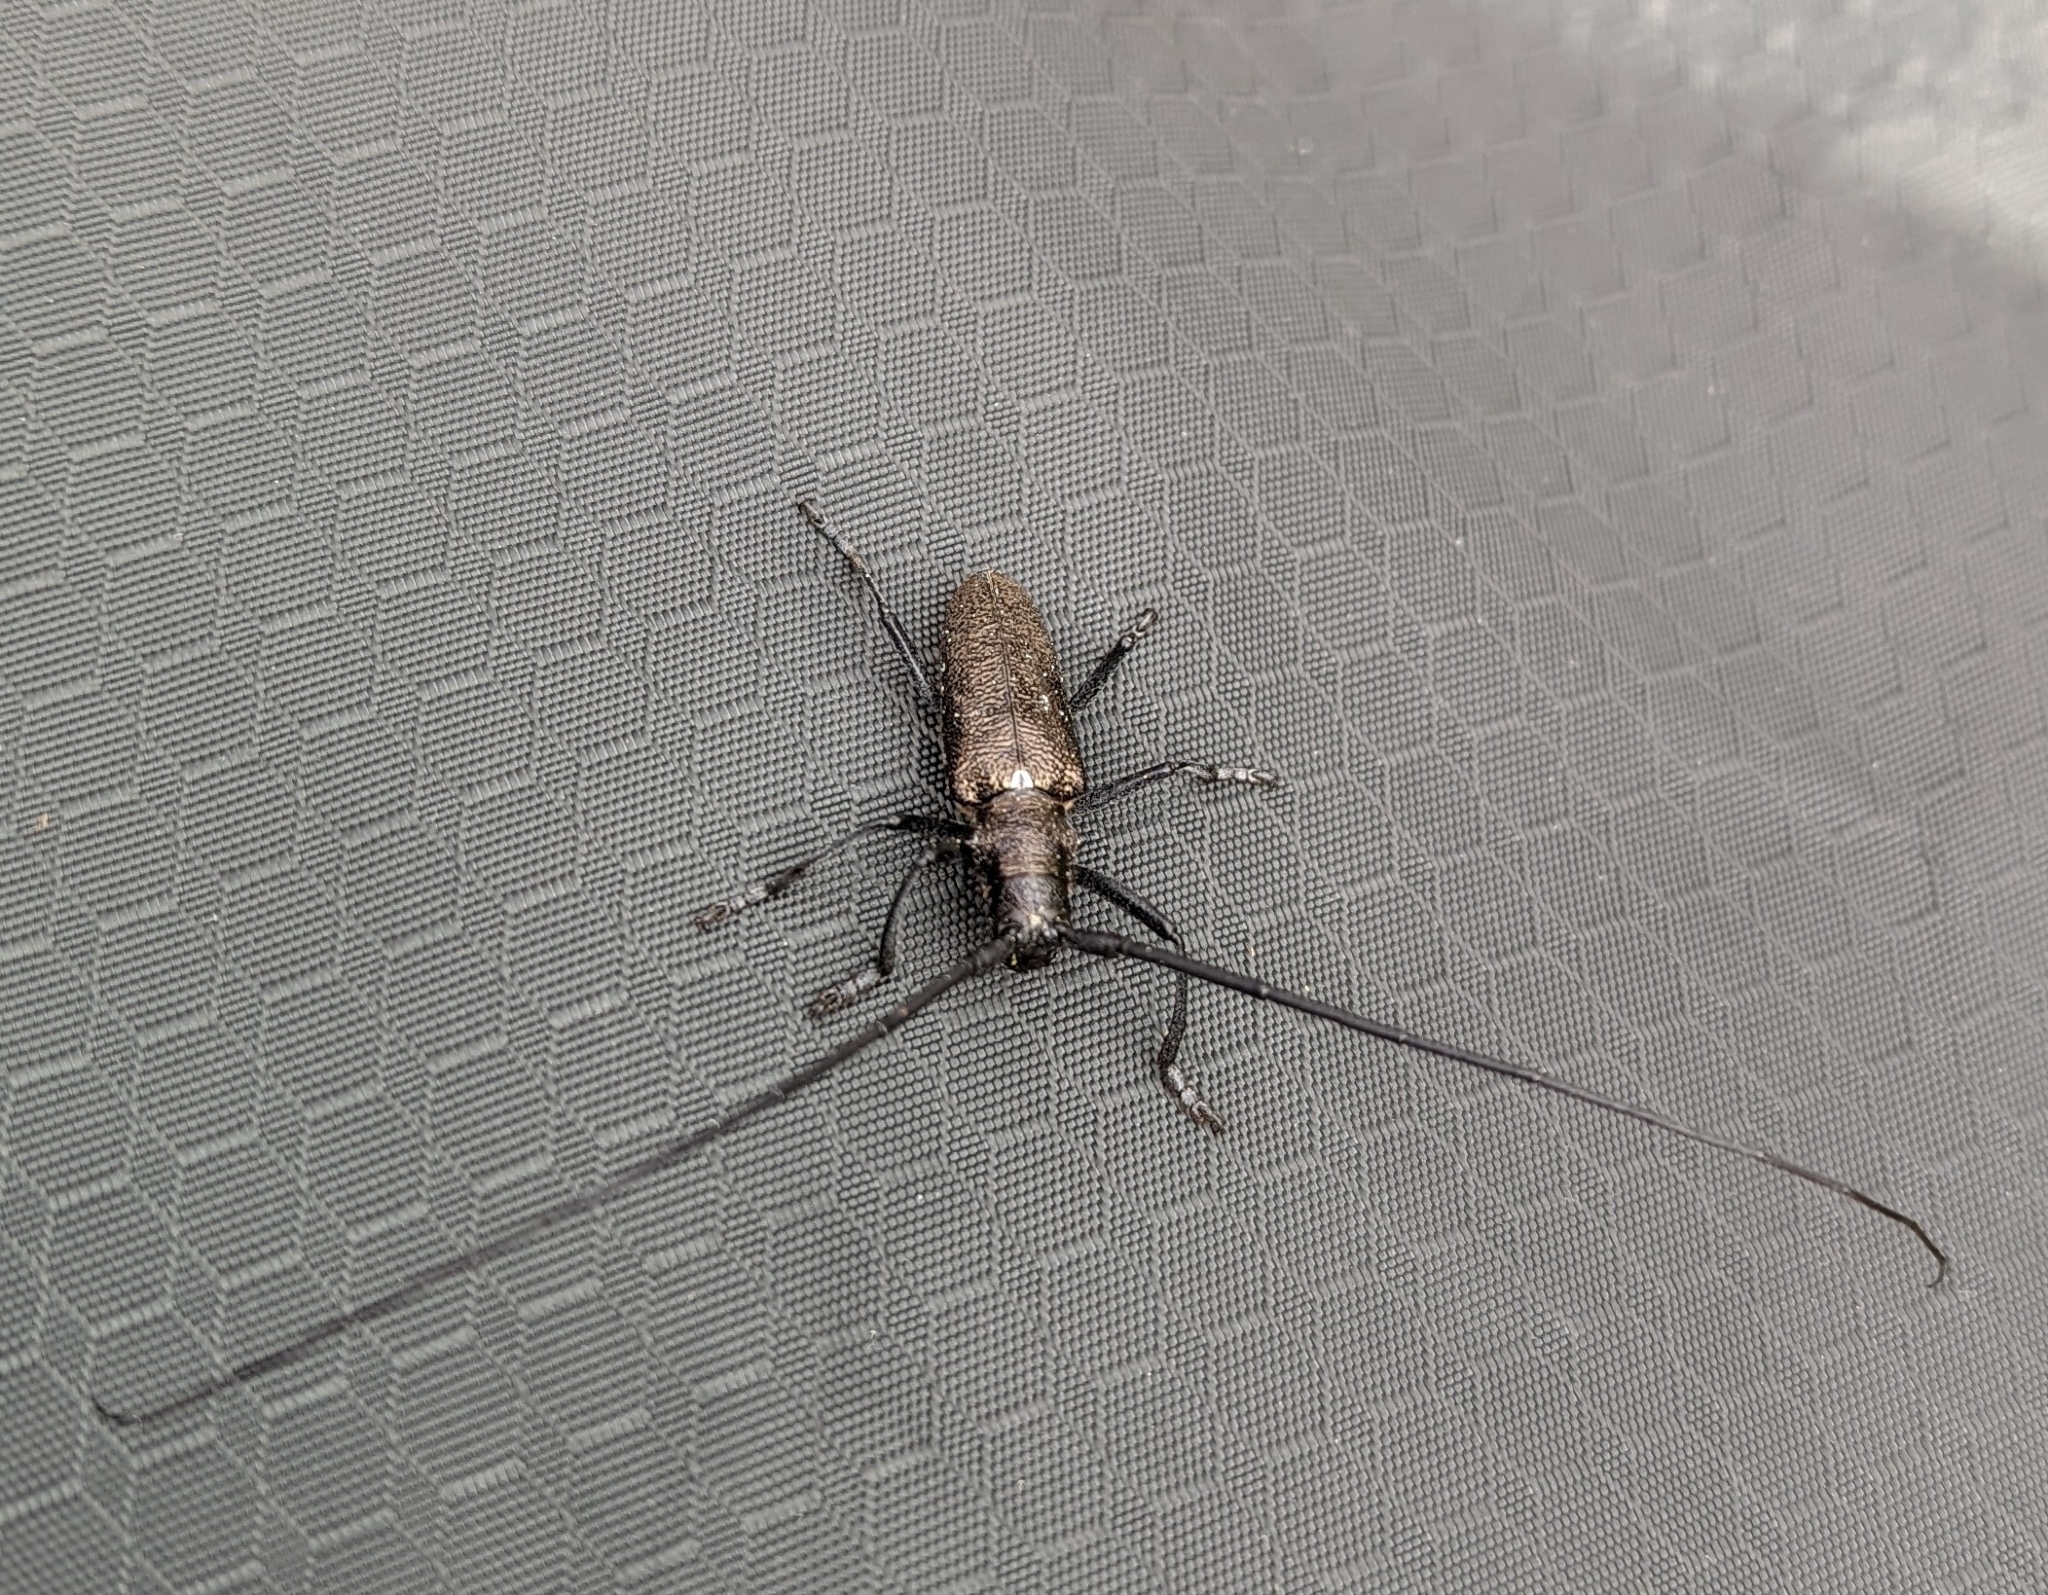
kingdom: Animalia
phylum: Arthropoda
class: Insecta
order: Coleoptera
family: Cerambycidae
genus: Monochamus
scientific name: Monochamus scutellatus
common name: White-spotted sawyer beetle
